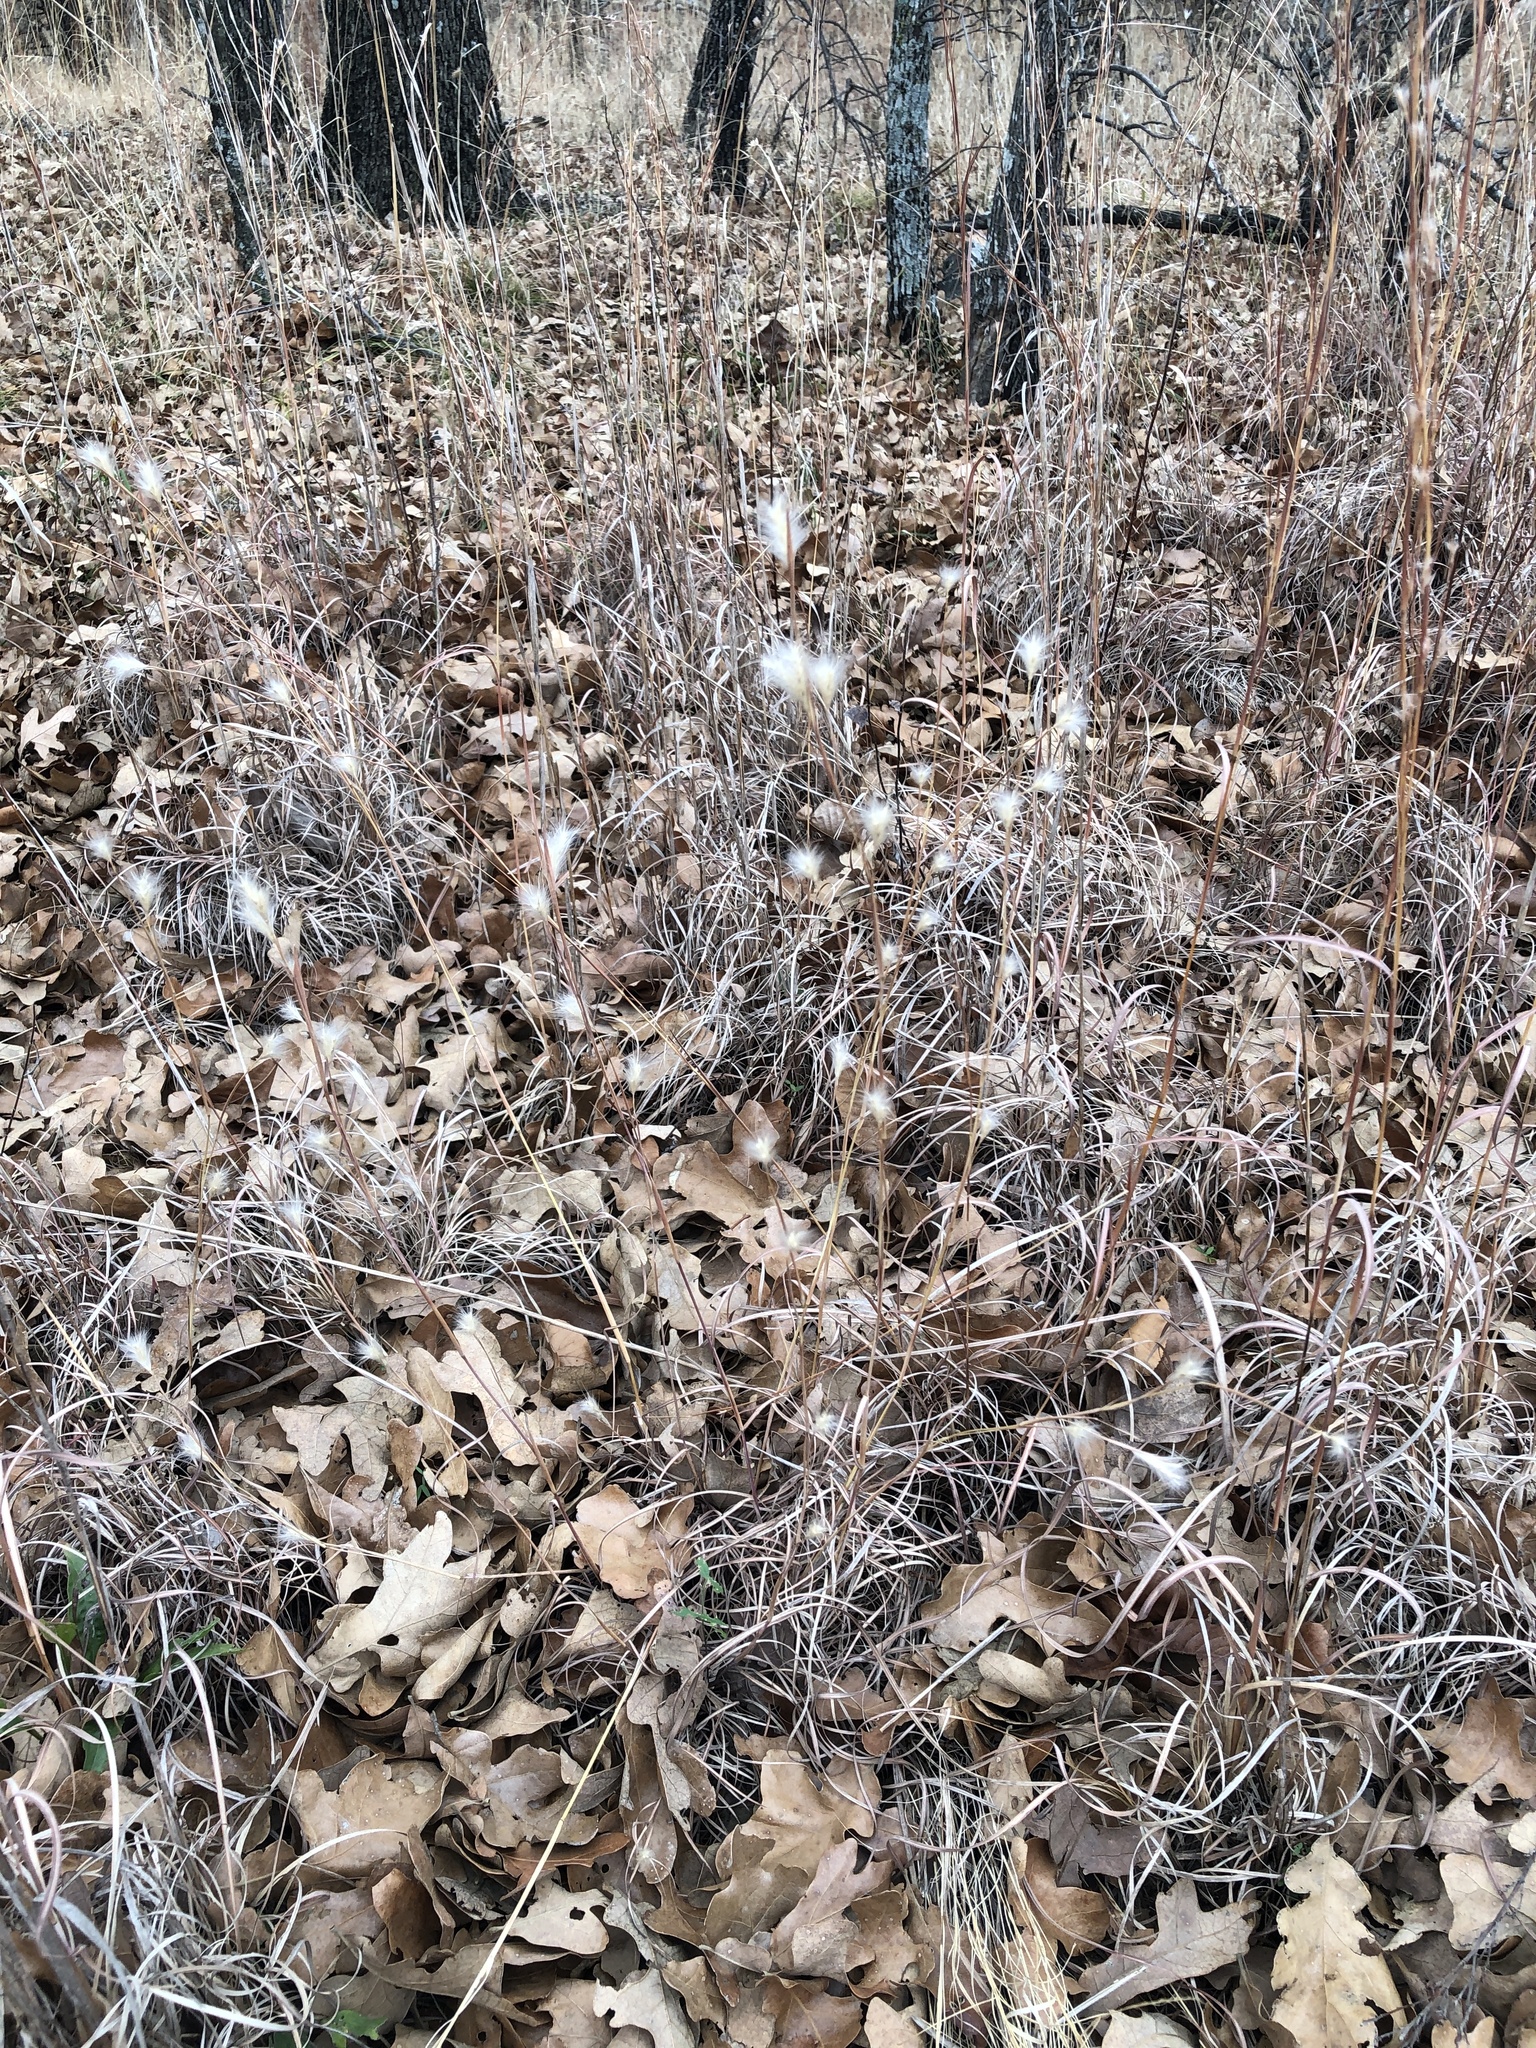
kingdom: Plantae
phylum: Tracheophyta
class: Liliopsida
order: Poales
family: Poaceae
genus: Andropogon
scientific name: Andropogon ternarius
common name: Split bluestem
